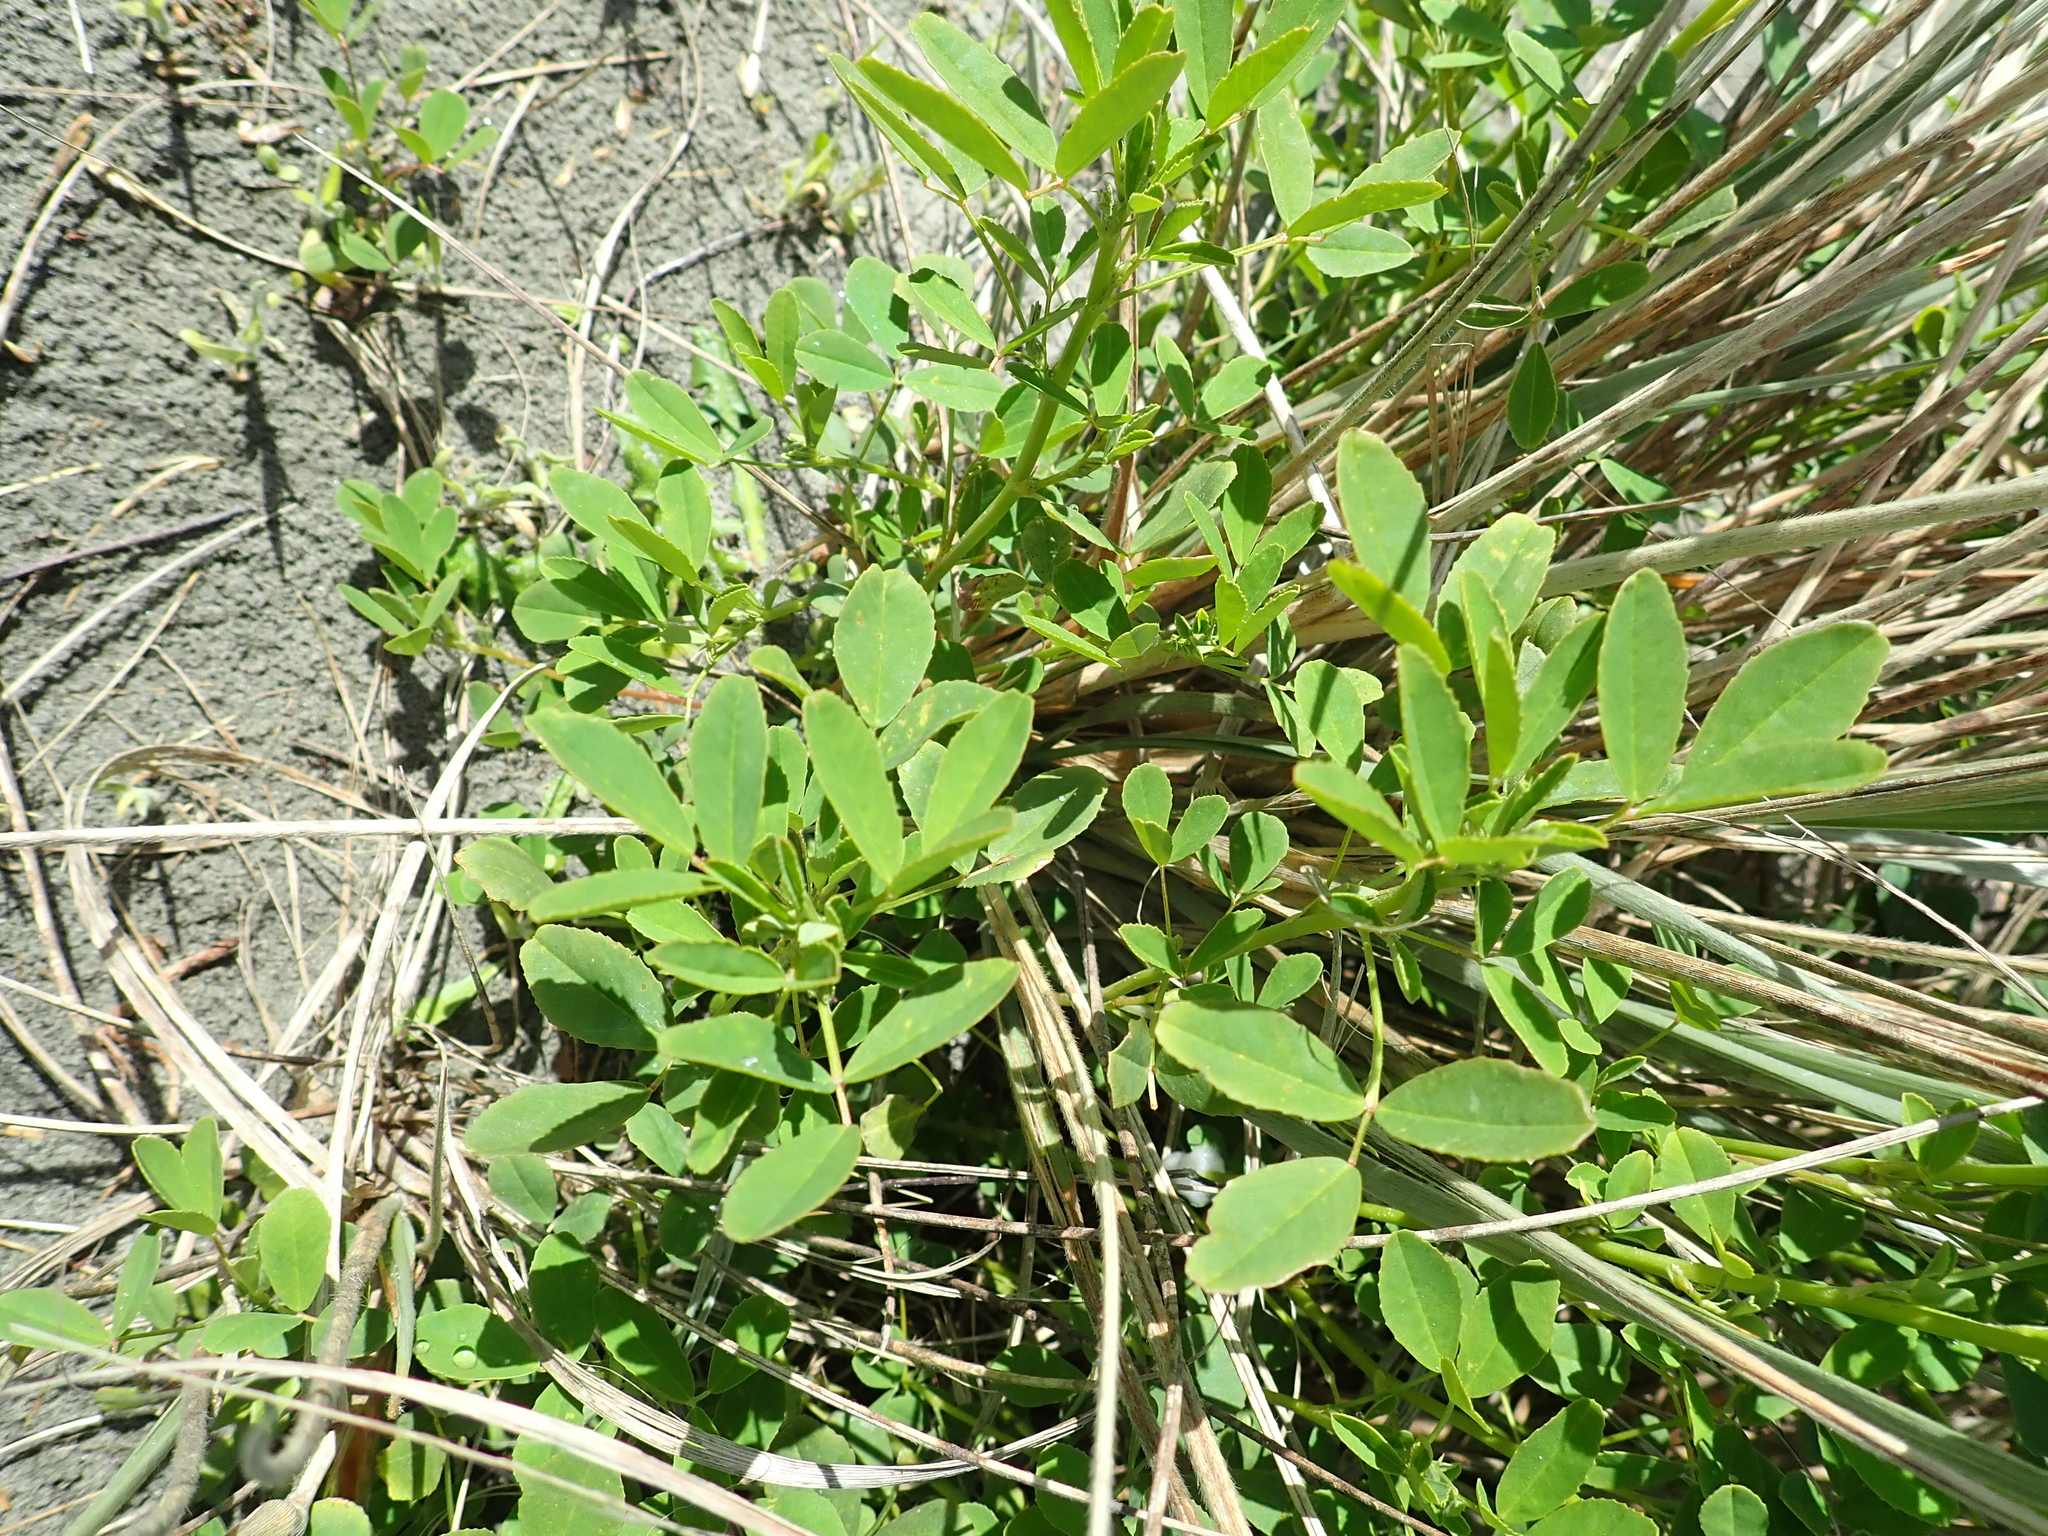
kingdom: Plantae
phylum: Tracheophyta
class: Magnoliopsida
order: Fabales
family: Fabaceae
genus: Melilotus
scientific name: Melilotus indicus
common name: Small melilot
